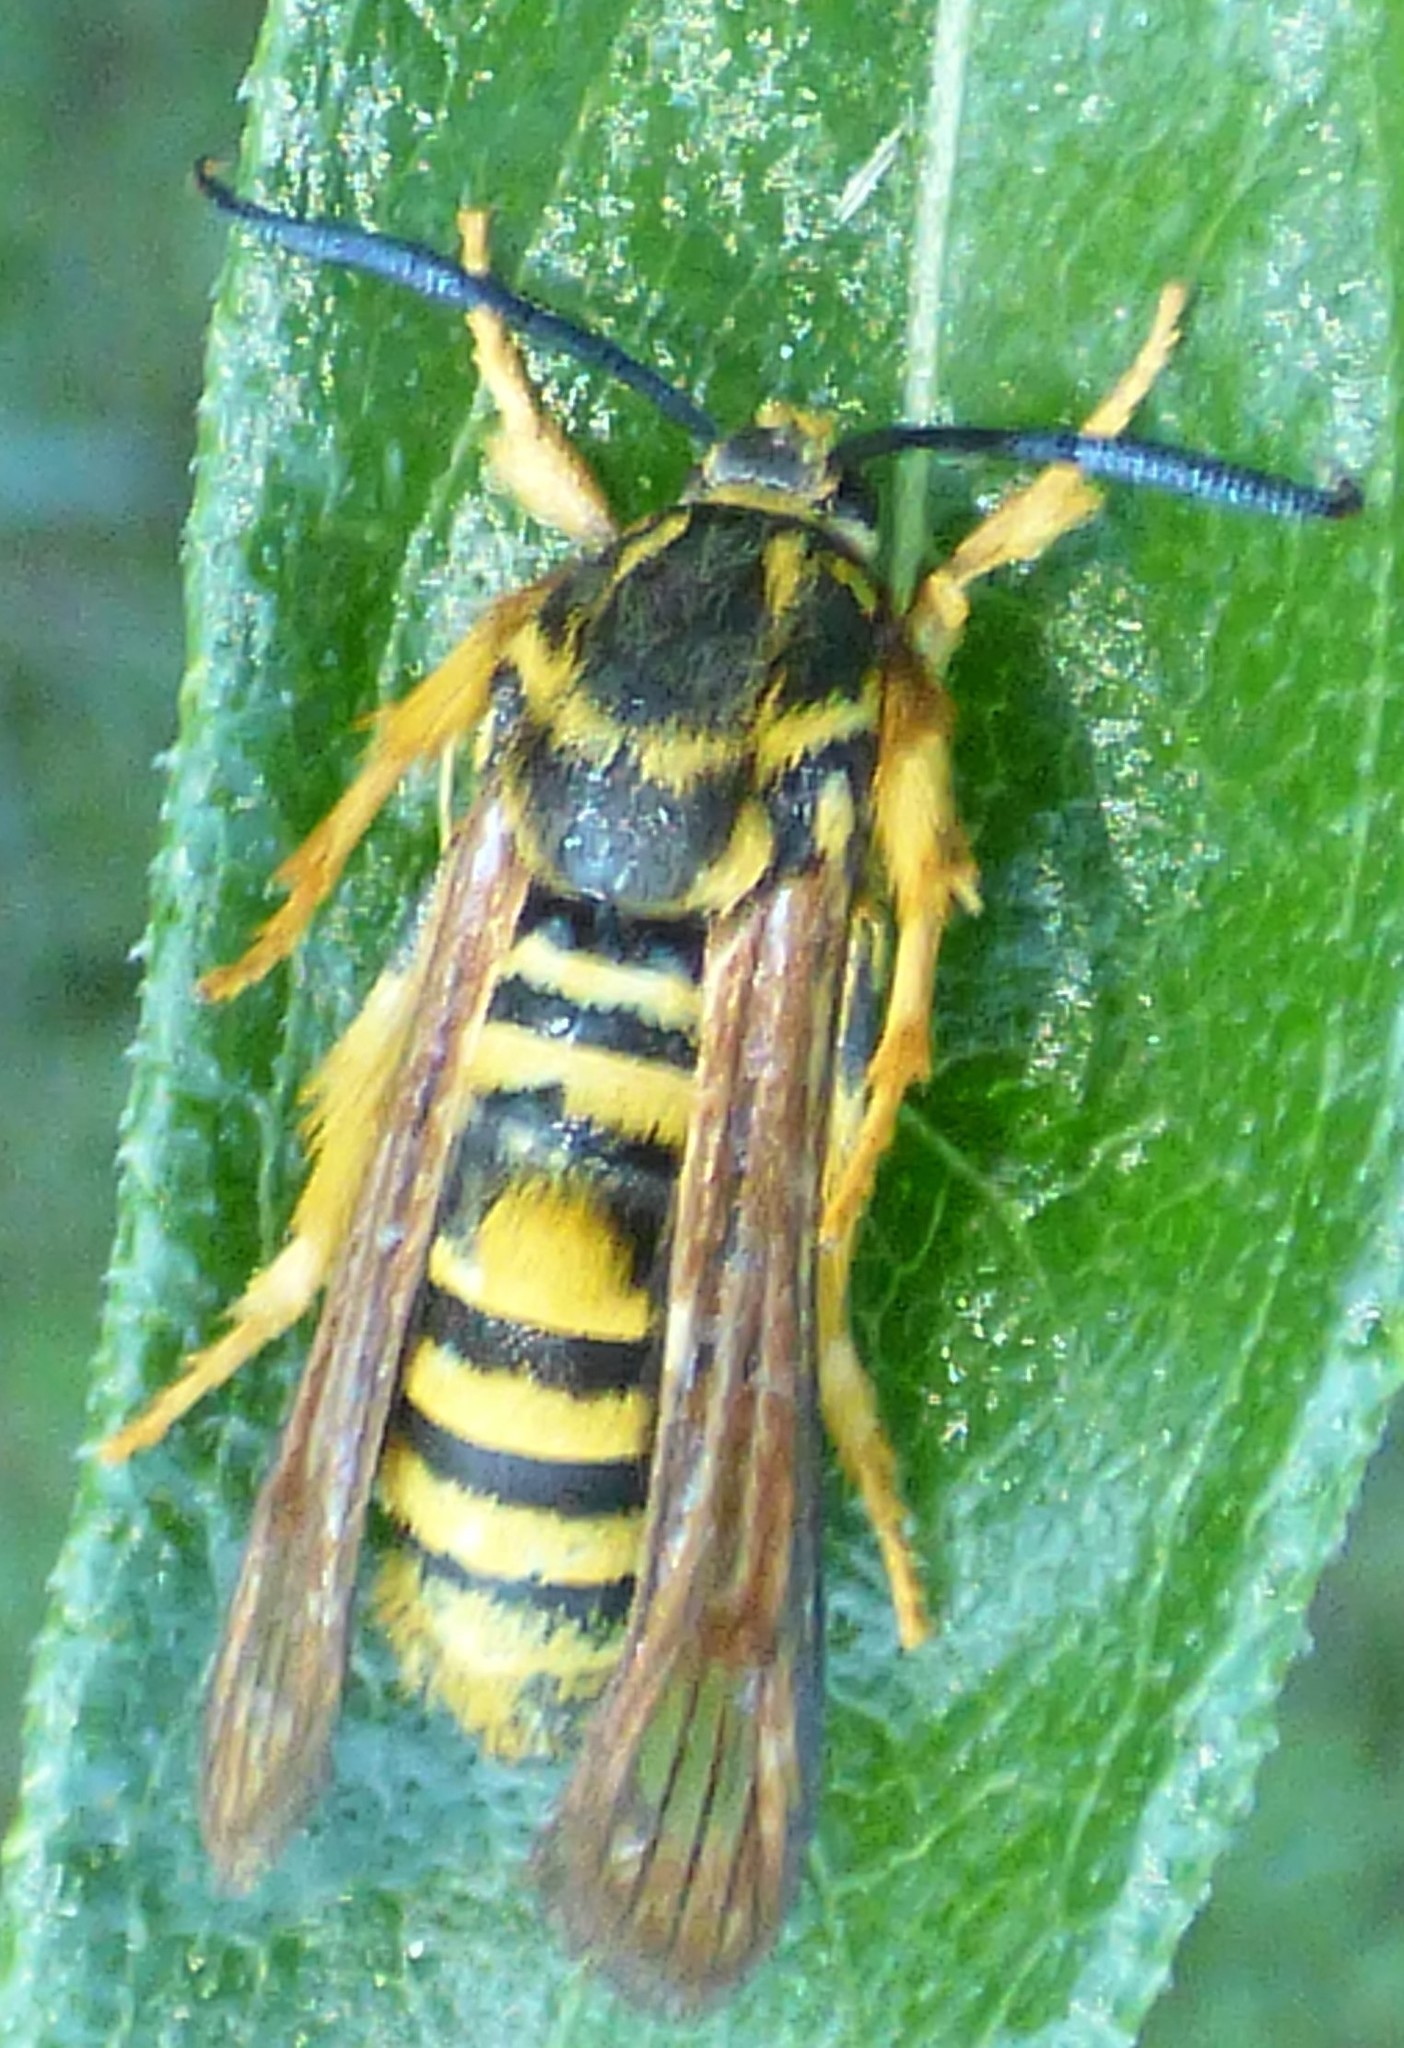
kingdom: Animalia
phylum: Arthropoda
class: Insecta
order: Lepidoptera
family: Sesiidae
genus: Pennisetia
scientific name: Pennisetia marginatum
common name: Raspberry crown borer
